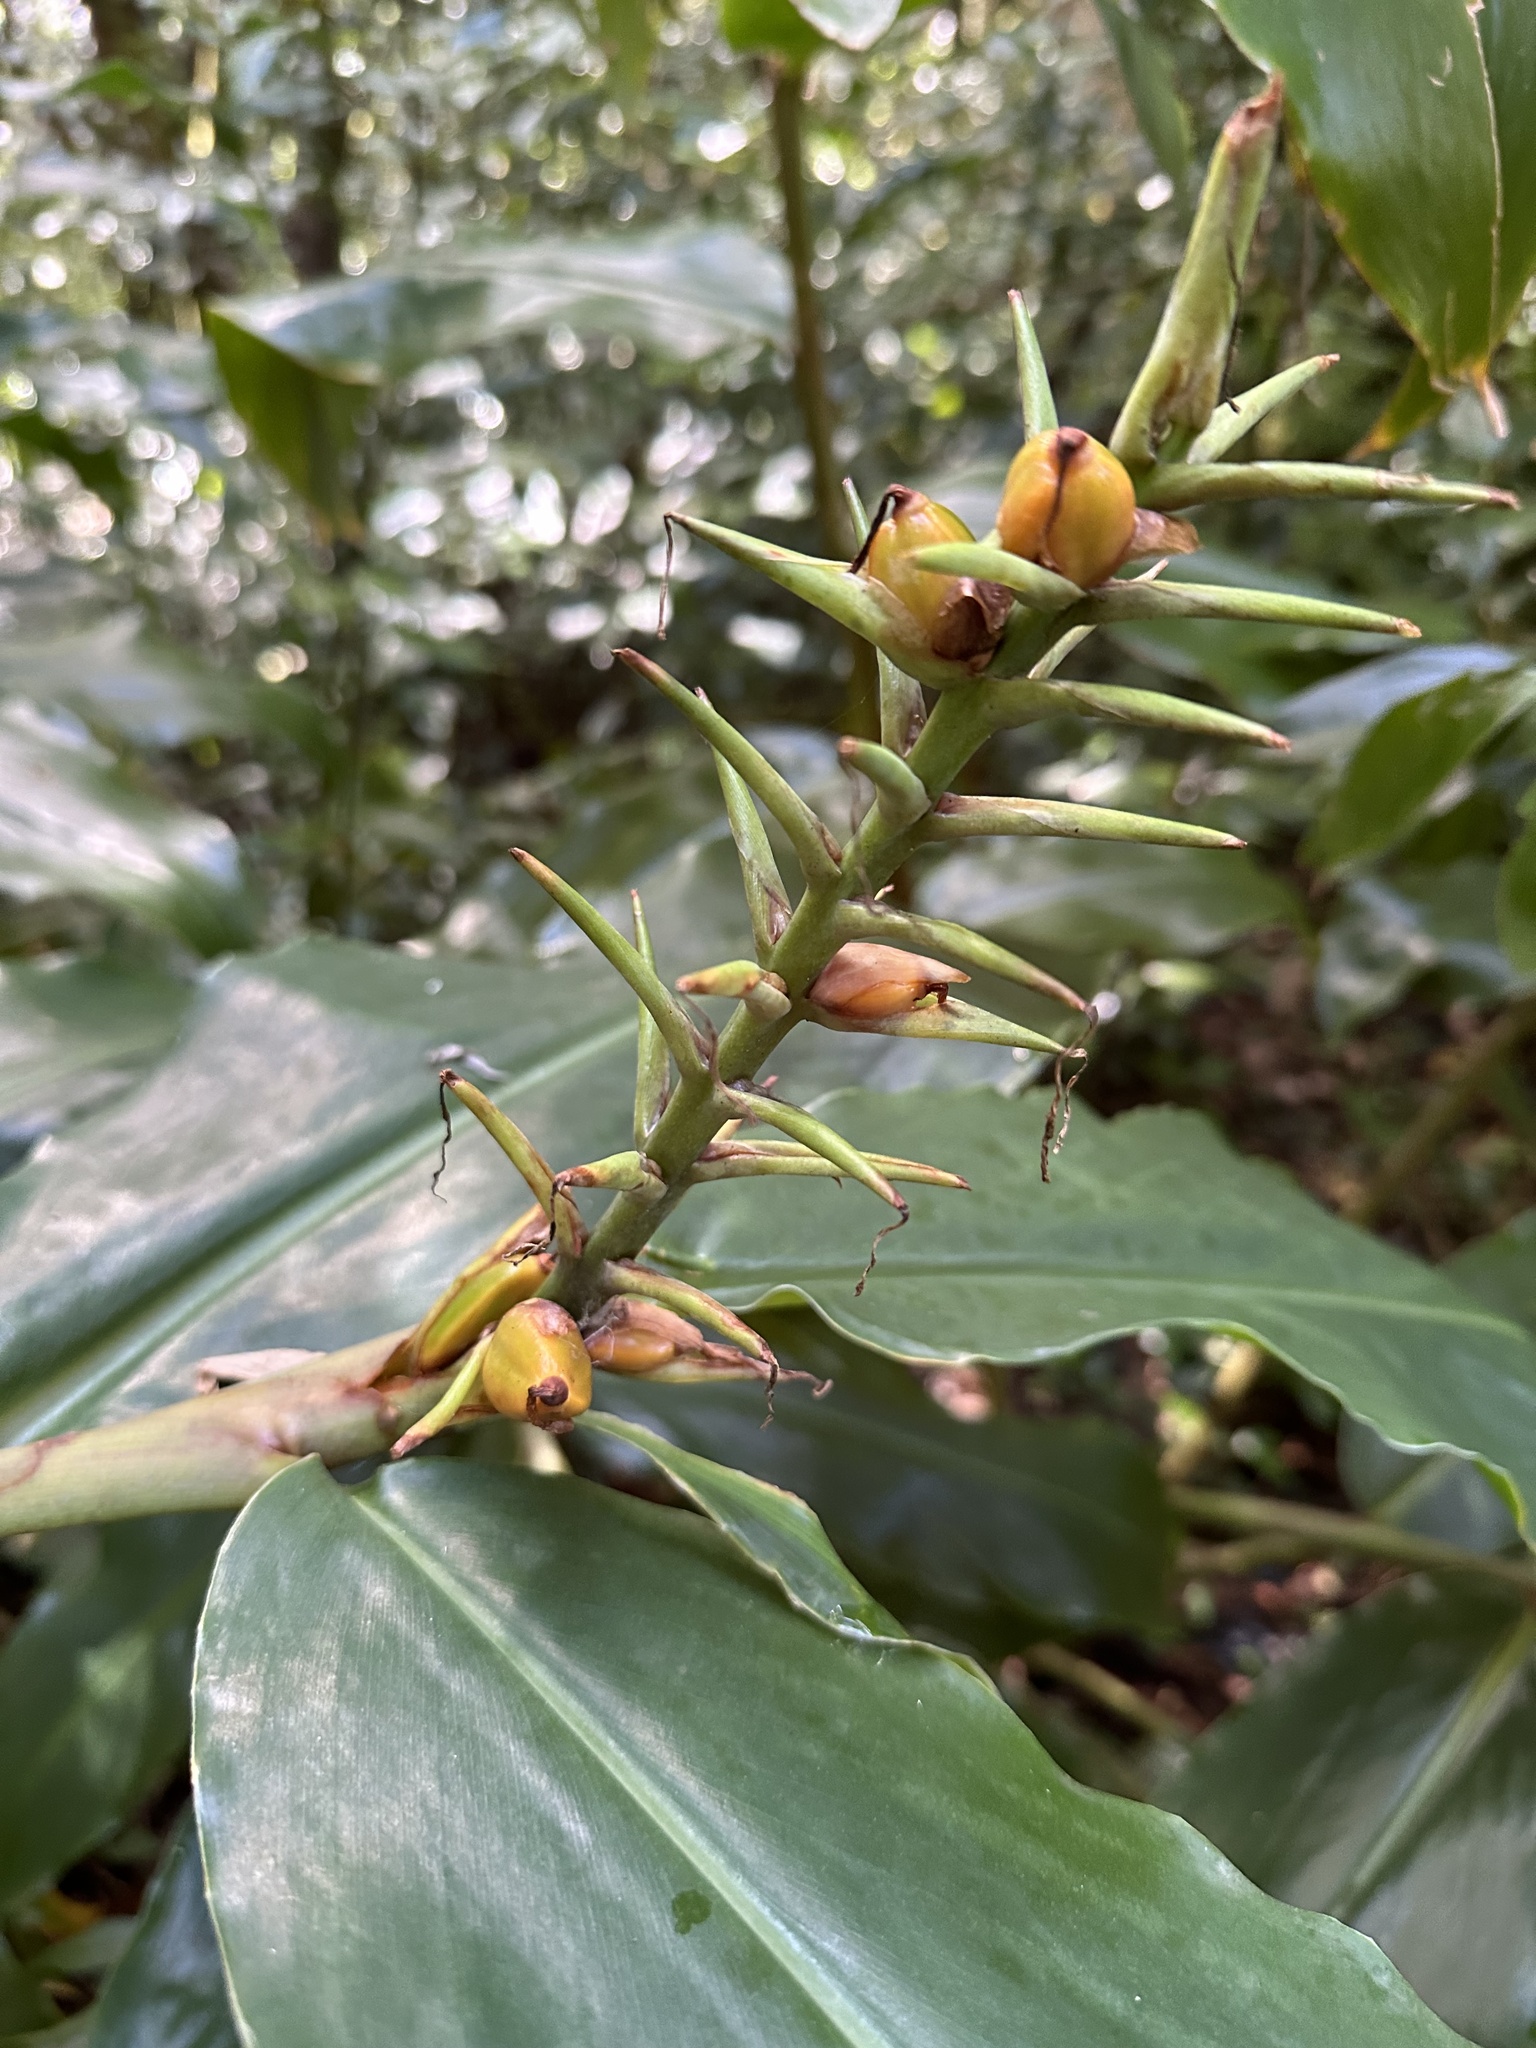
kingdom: Plantae
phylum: Tracheophyta
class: Liliopsida
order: Zingiberales
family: Zingiberaceae
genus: Hedychium
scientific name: Hedychium gardnerianum
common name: Himalayan ginger
